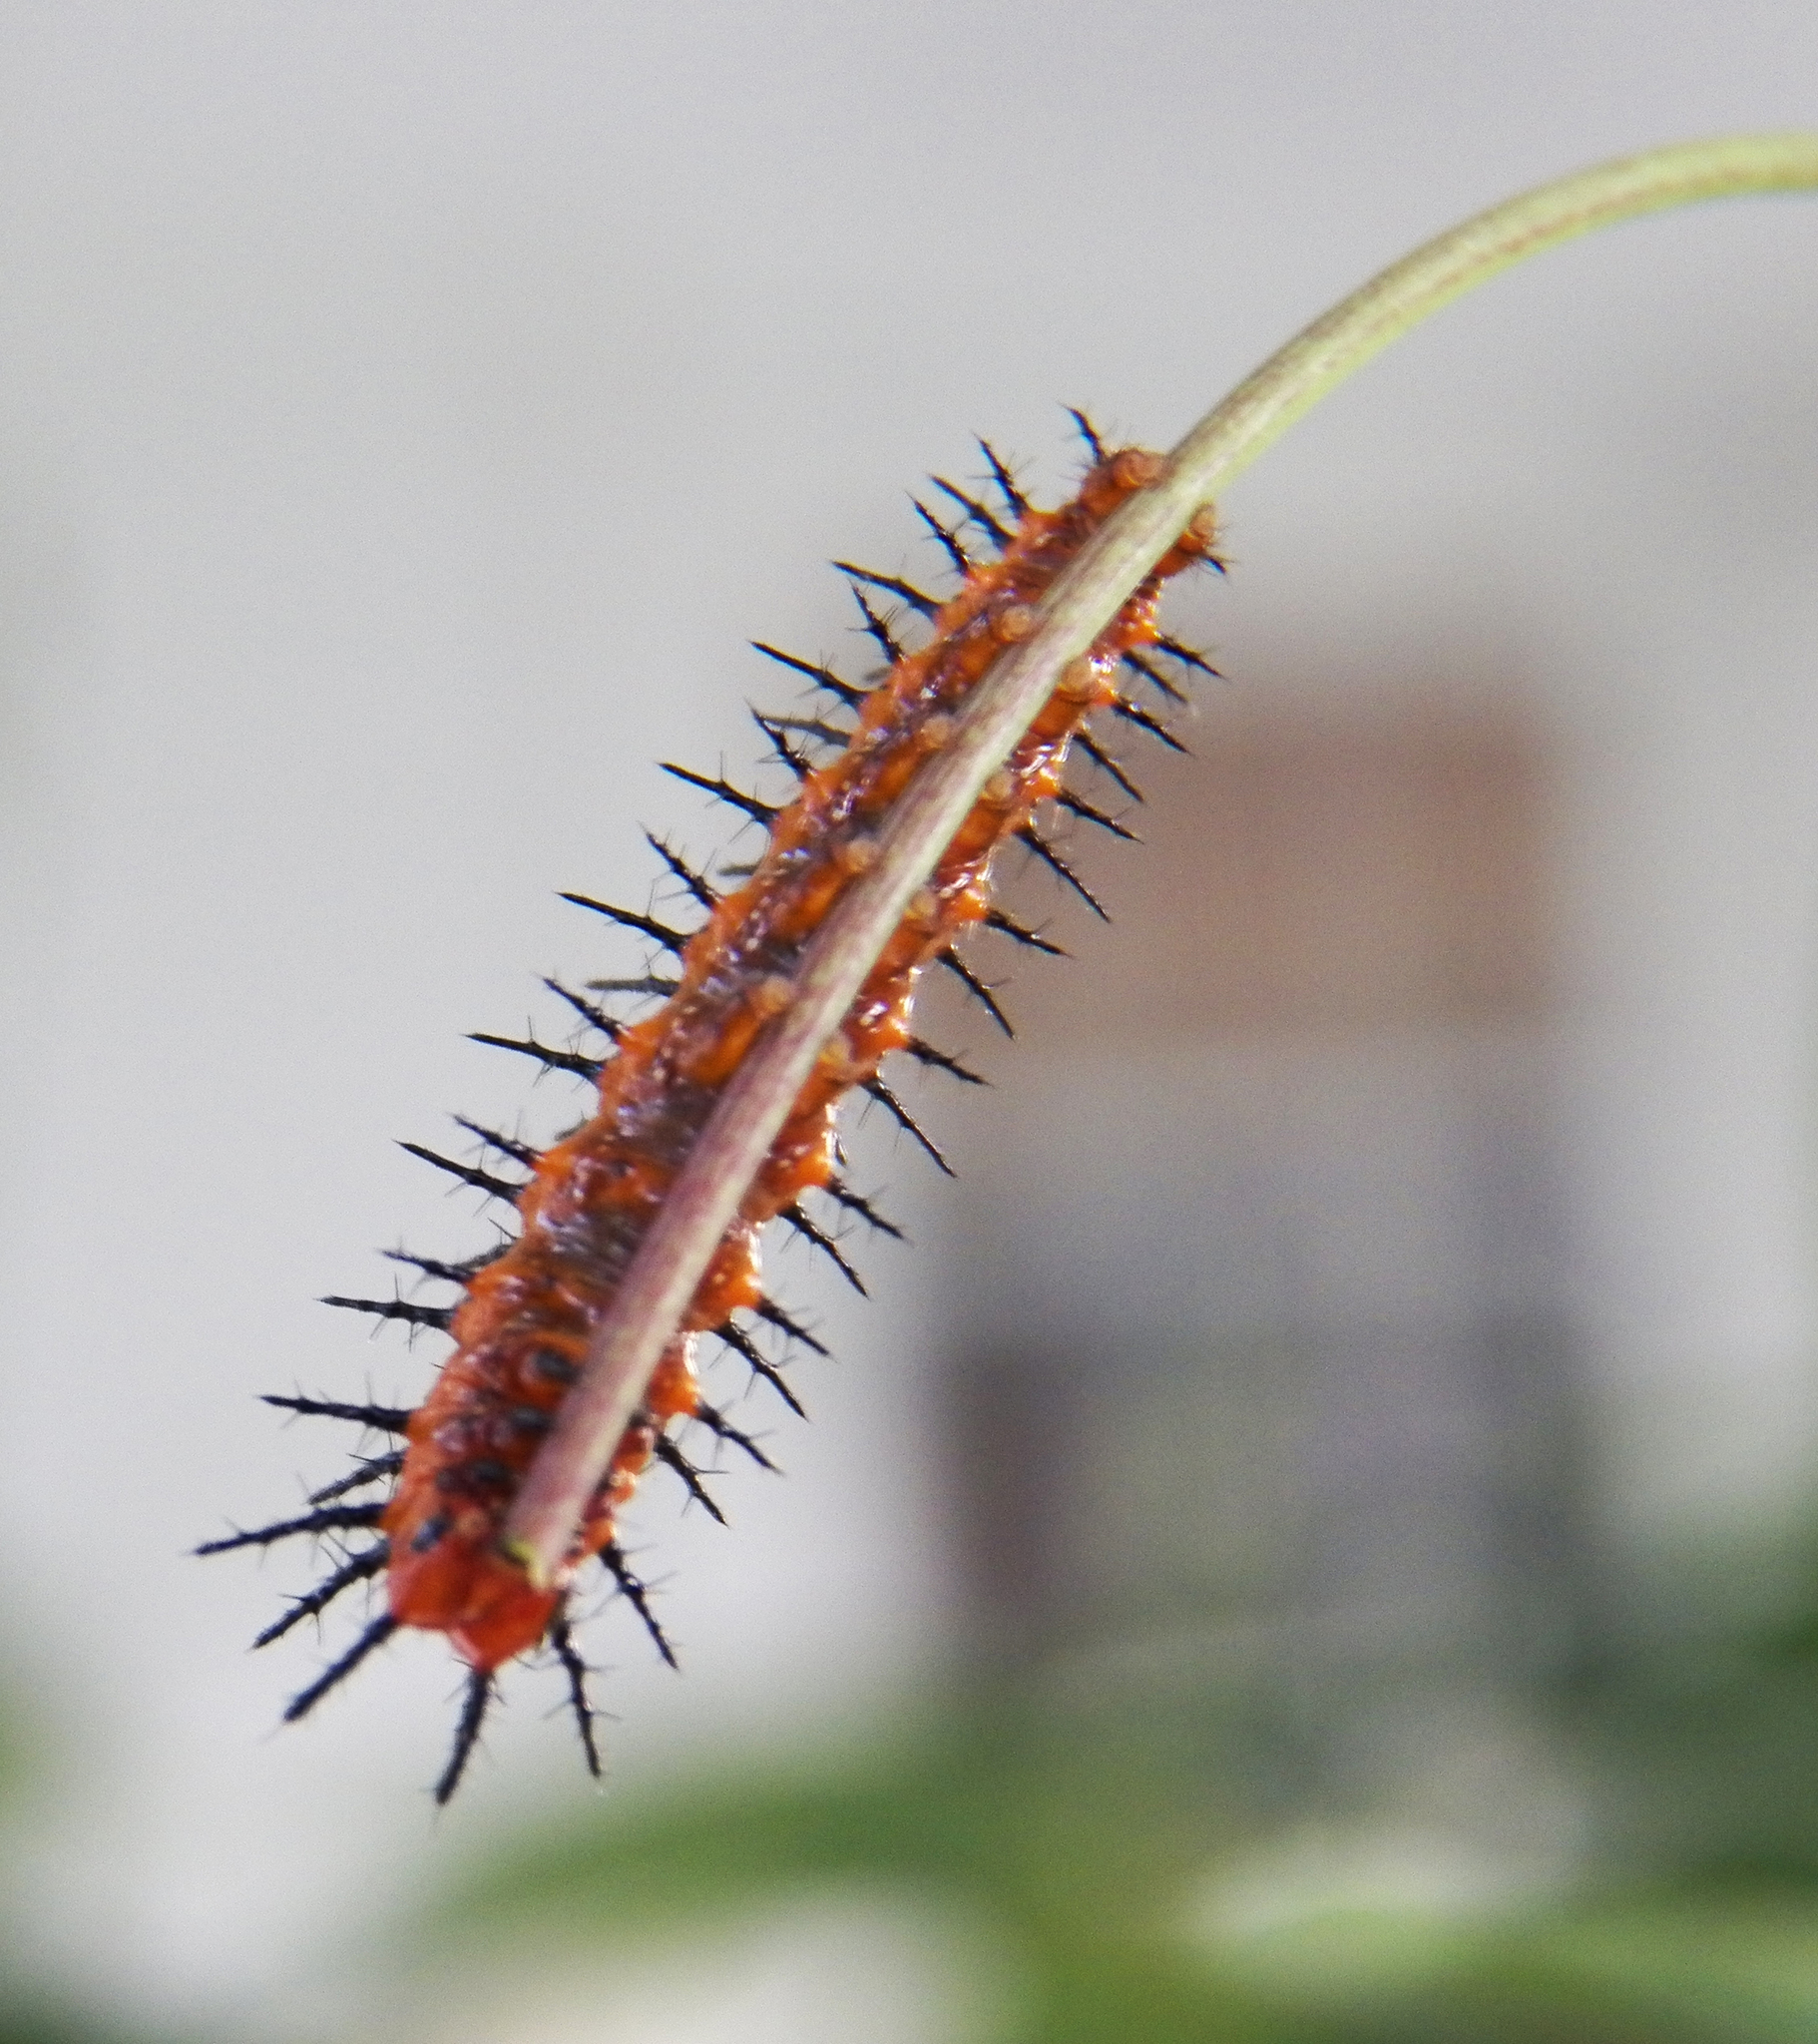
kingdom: Animalia
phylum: Arthropoda
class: Insecta
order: Lepidoptera
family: Nymphalidae
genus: Dione
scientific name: Dione vanillae
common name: Gulf fritillary
